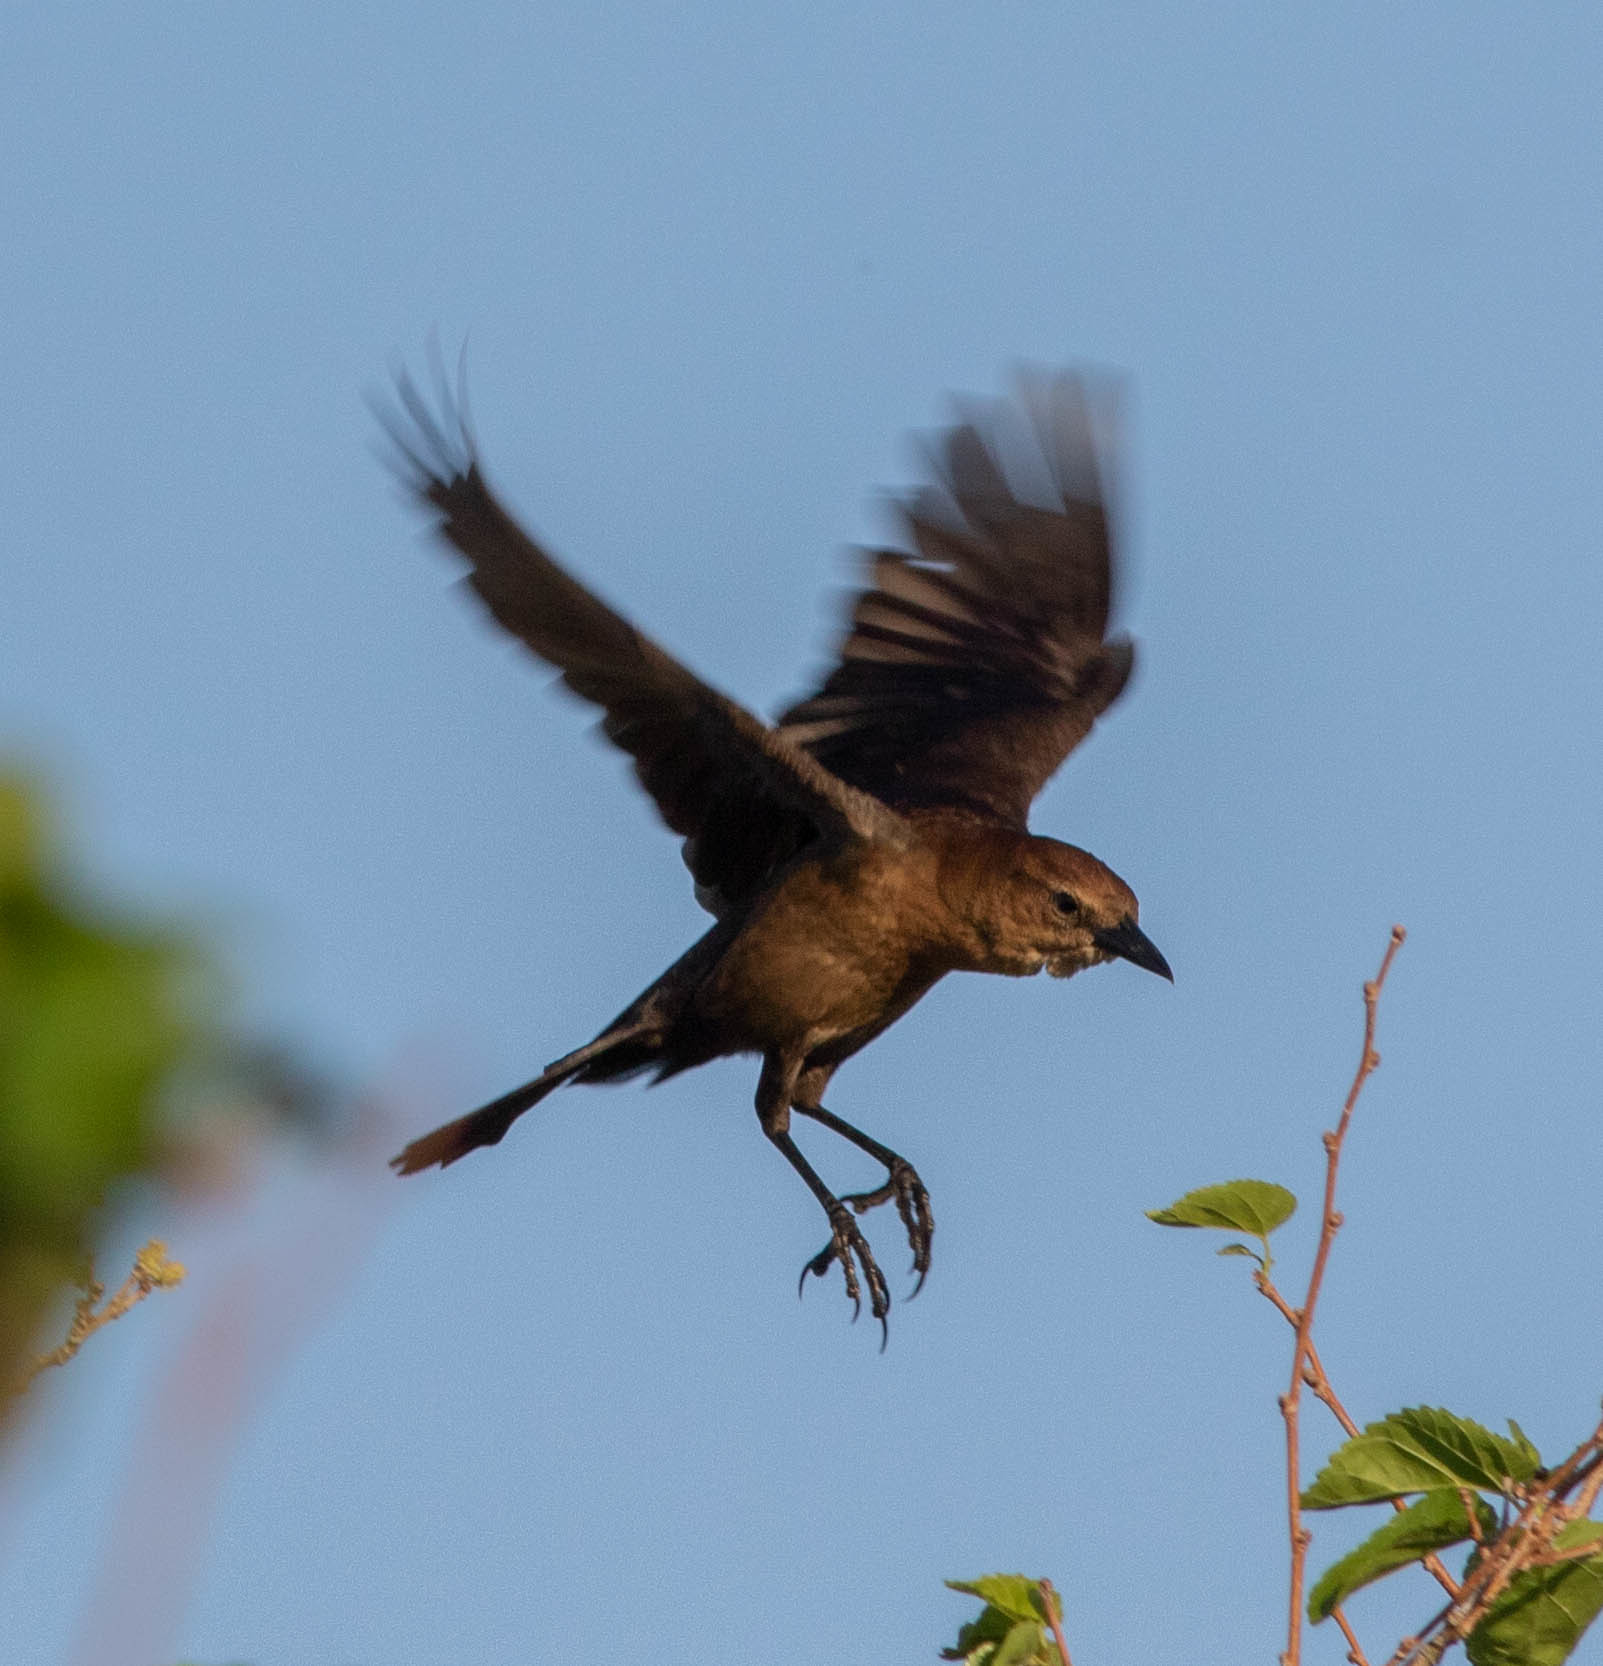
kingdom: Animalia
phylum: Chordata
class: Aves
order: Passeriformes
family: Icteridae
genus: Quiscalus
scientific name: Quiscalus major
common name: Boat-tailed grackle
